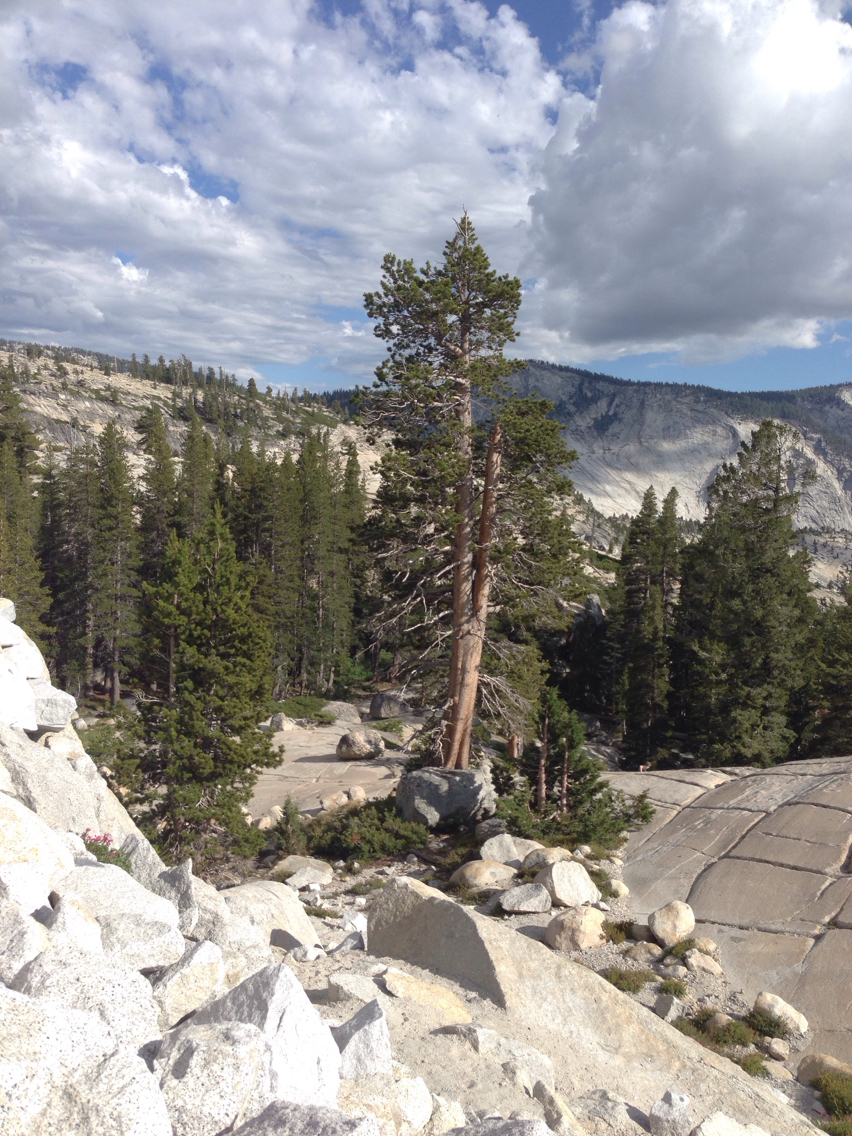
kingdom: Plantae
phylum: Tracheophyta
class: Pinopsida
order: Pinales
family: Pinaceae
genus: Pinus
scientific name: Pinus contorta
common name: Lodgepole pine
